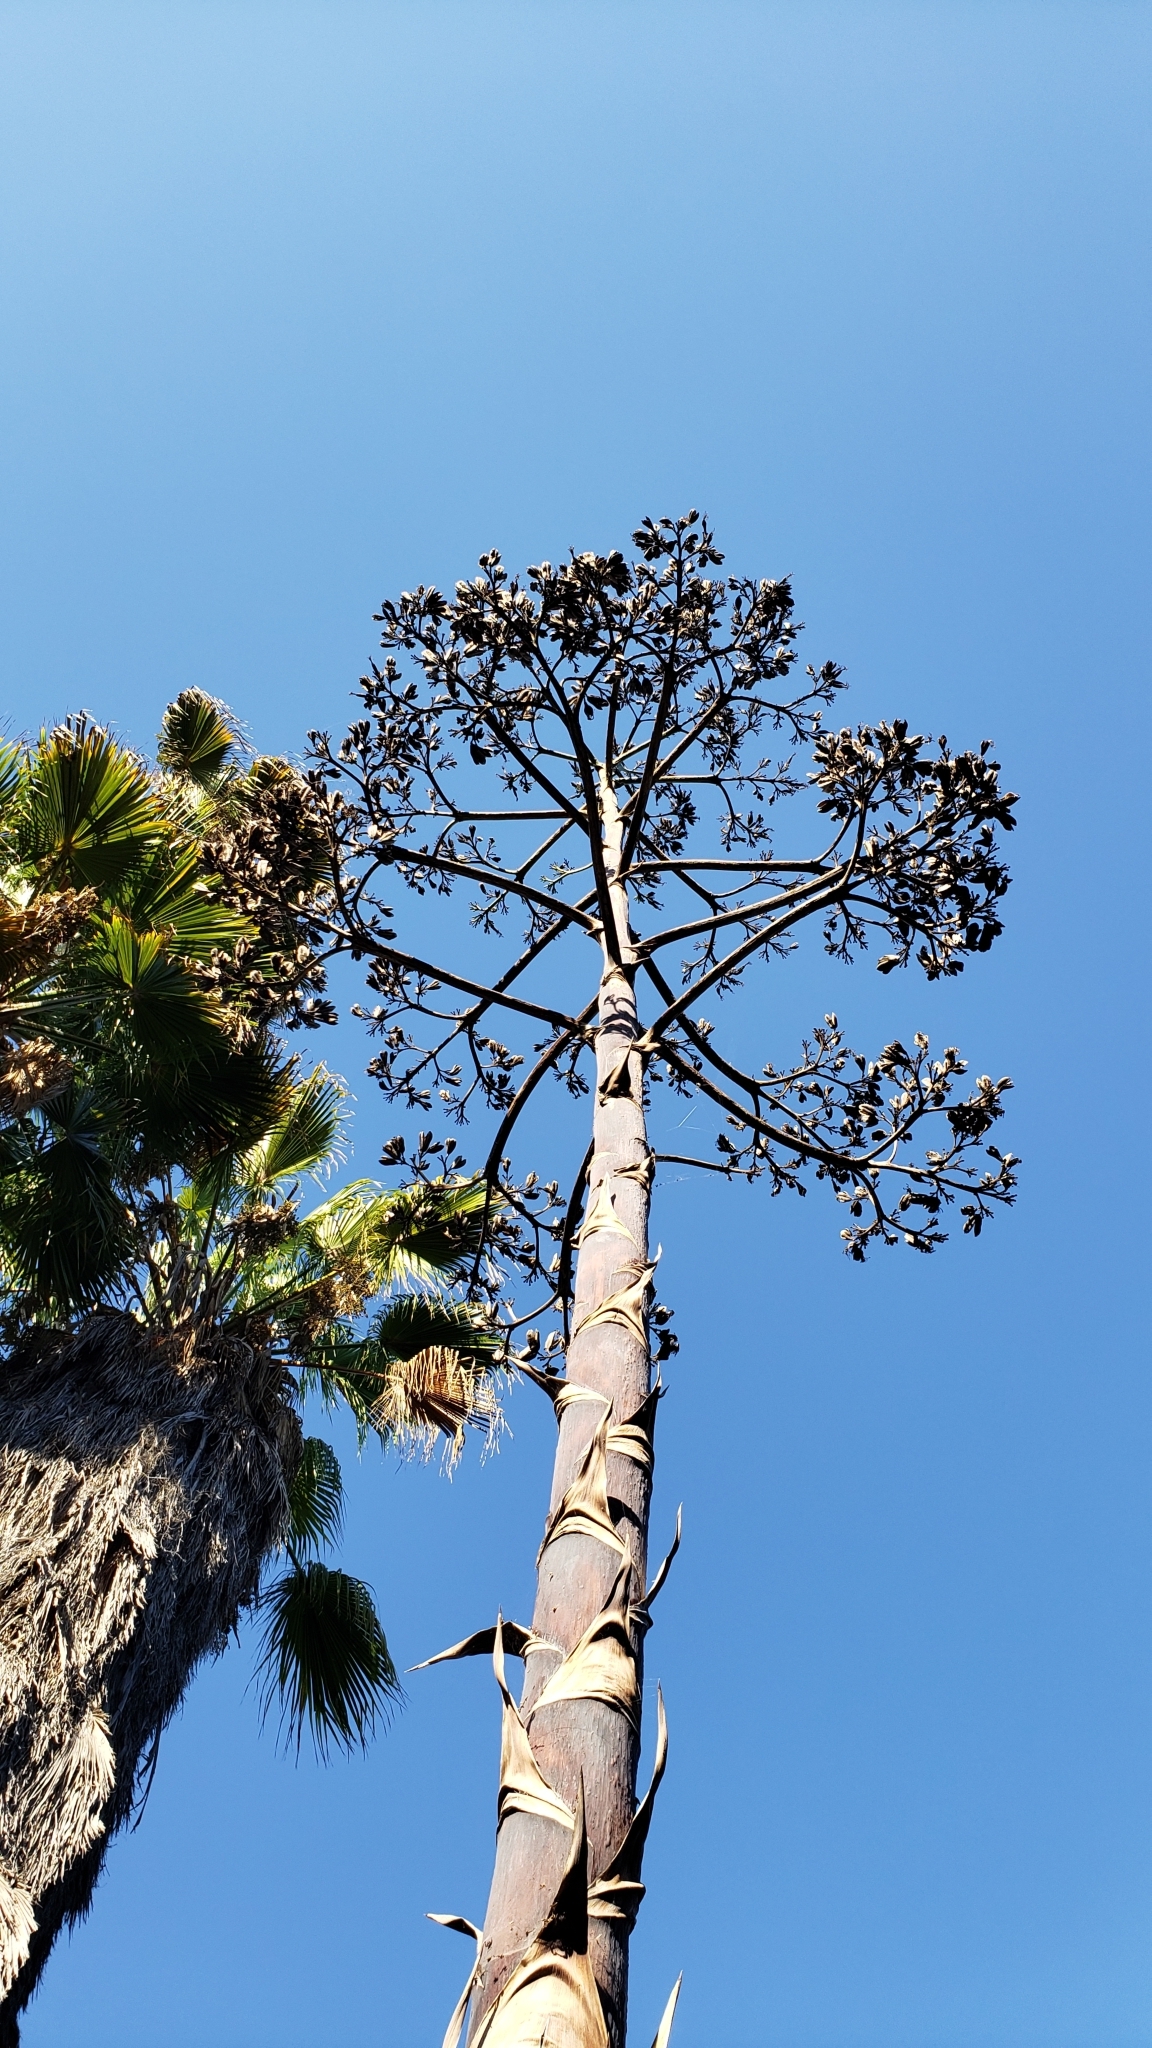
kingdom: Plantae
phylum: Tracheophyta
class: Liliopsida
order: Asparagales
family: Asparagaceae
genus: Agave
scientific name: Agave americana
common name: Centuryplant
